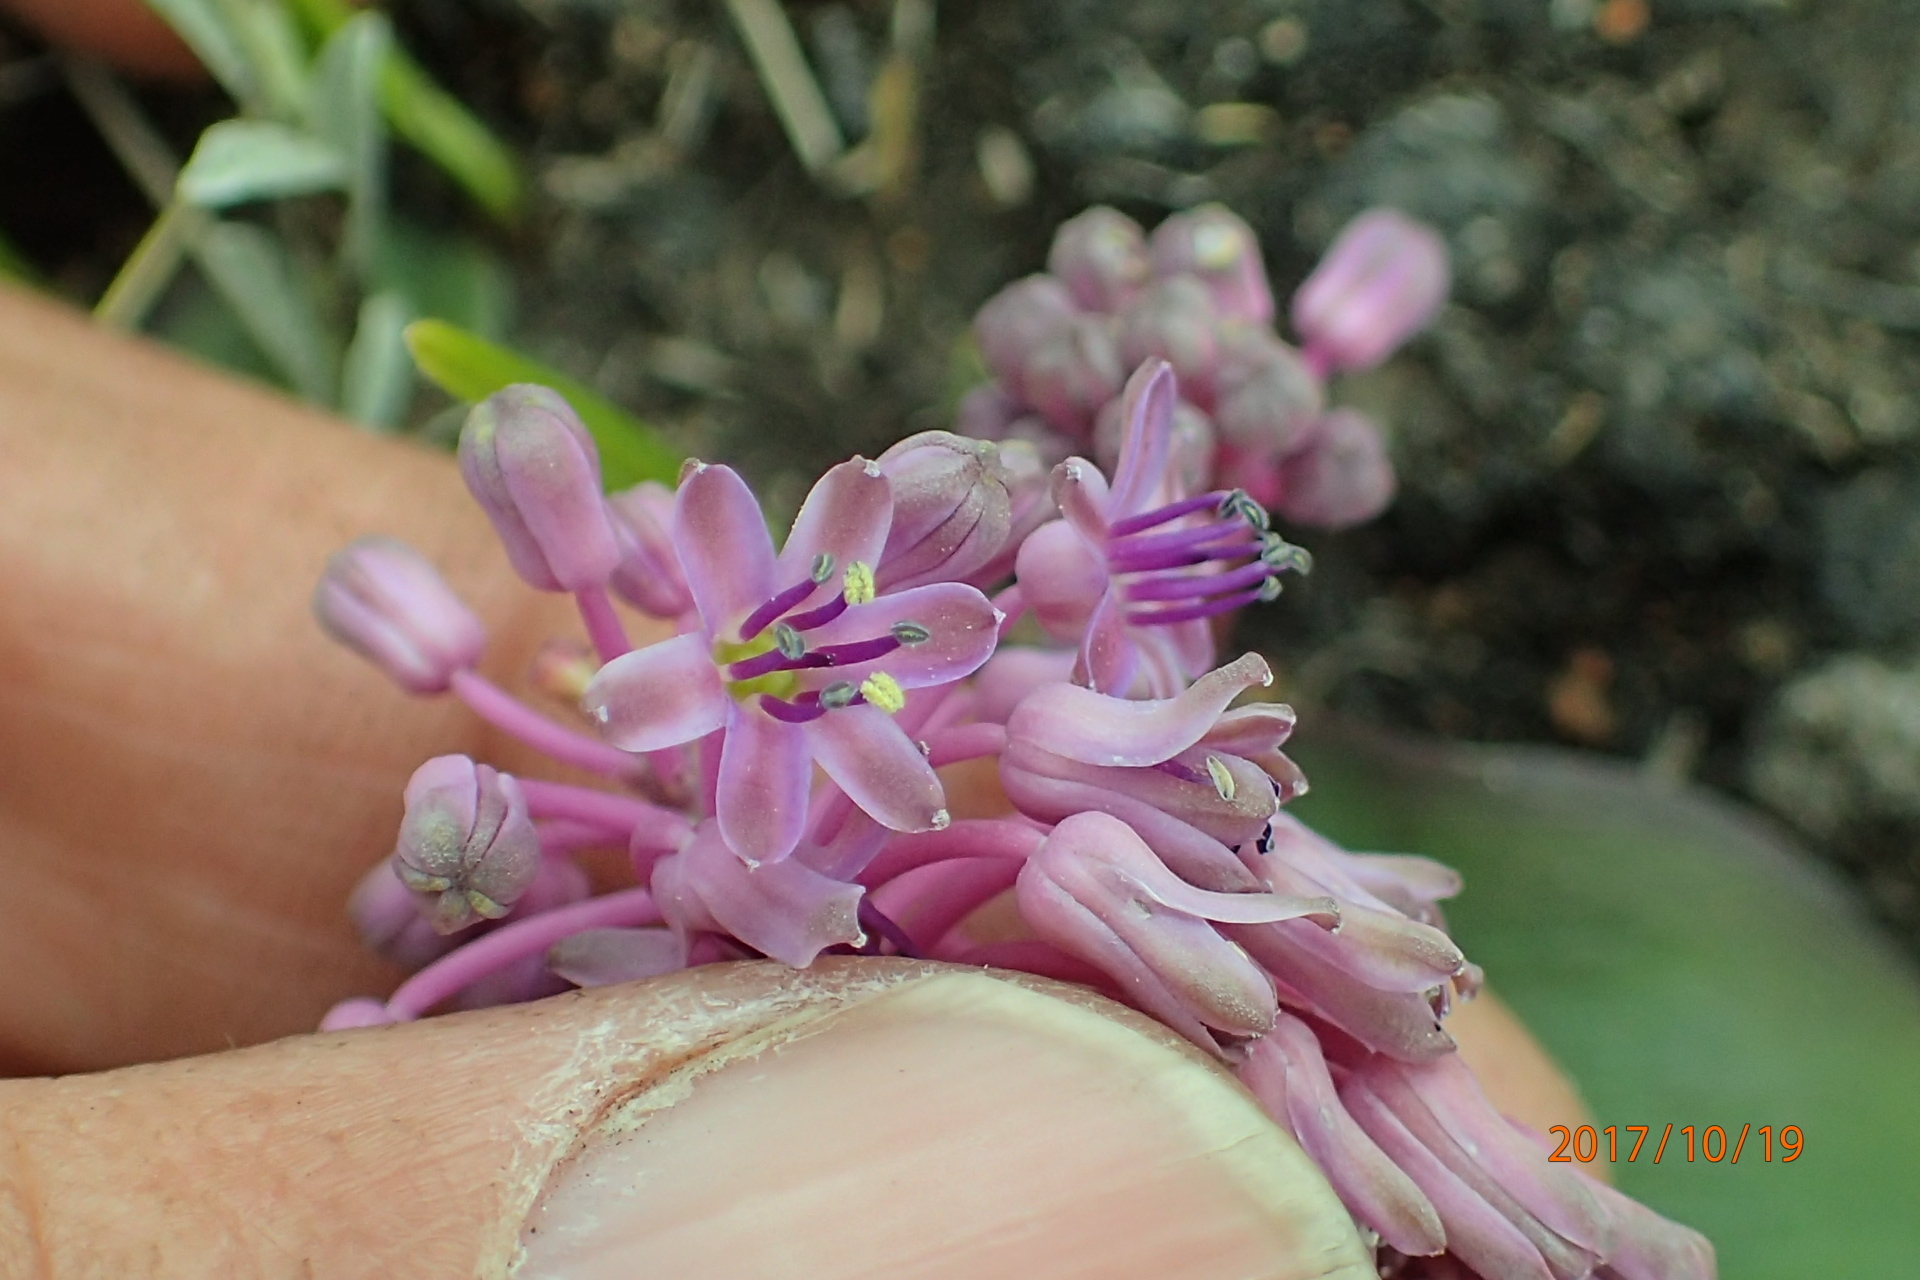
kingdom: Plantae
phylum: Tracheophyta
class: Liliopsida
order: Asparagales
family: Asparagaceae
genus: Ledebouria
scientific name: Ledebouria sandersonii
